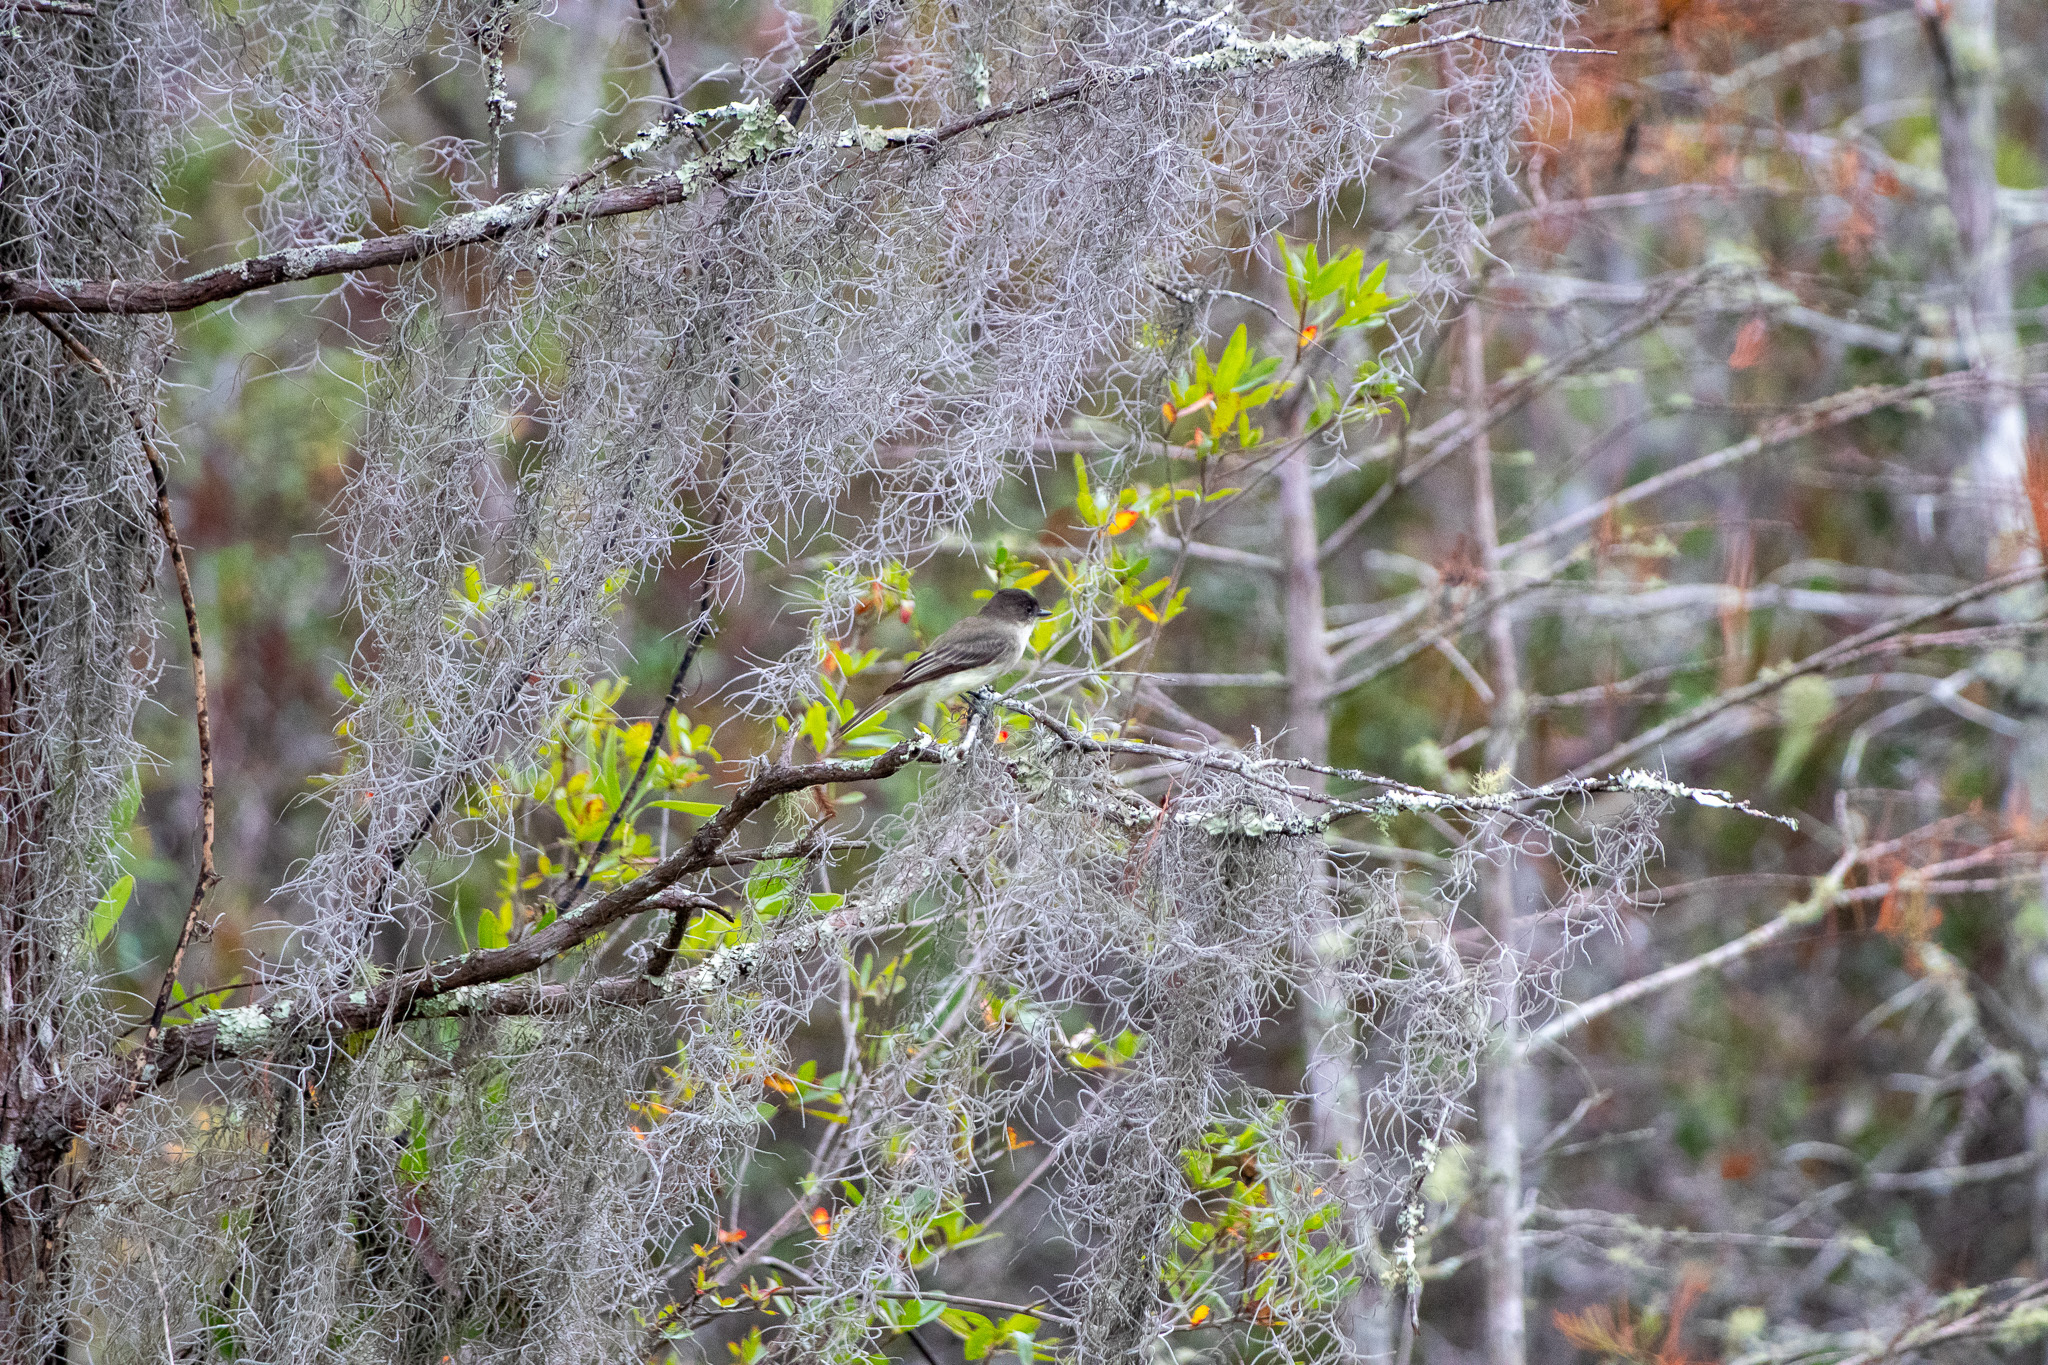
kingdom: Animalia
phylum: Chordata
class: Aves
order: Passeriformes
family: Tyrannidae
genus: Sayornis
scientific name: Sayornis phoebe
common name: Eastern phoebe
